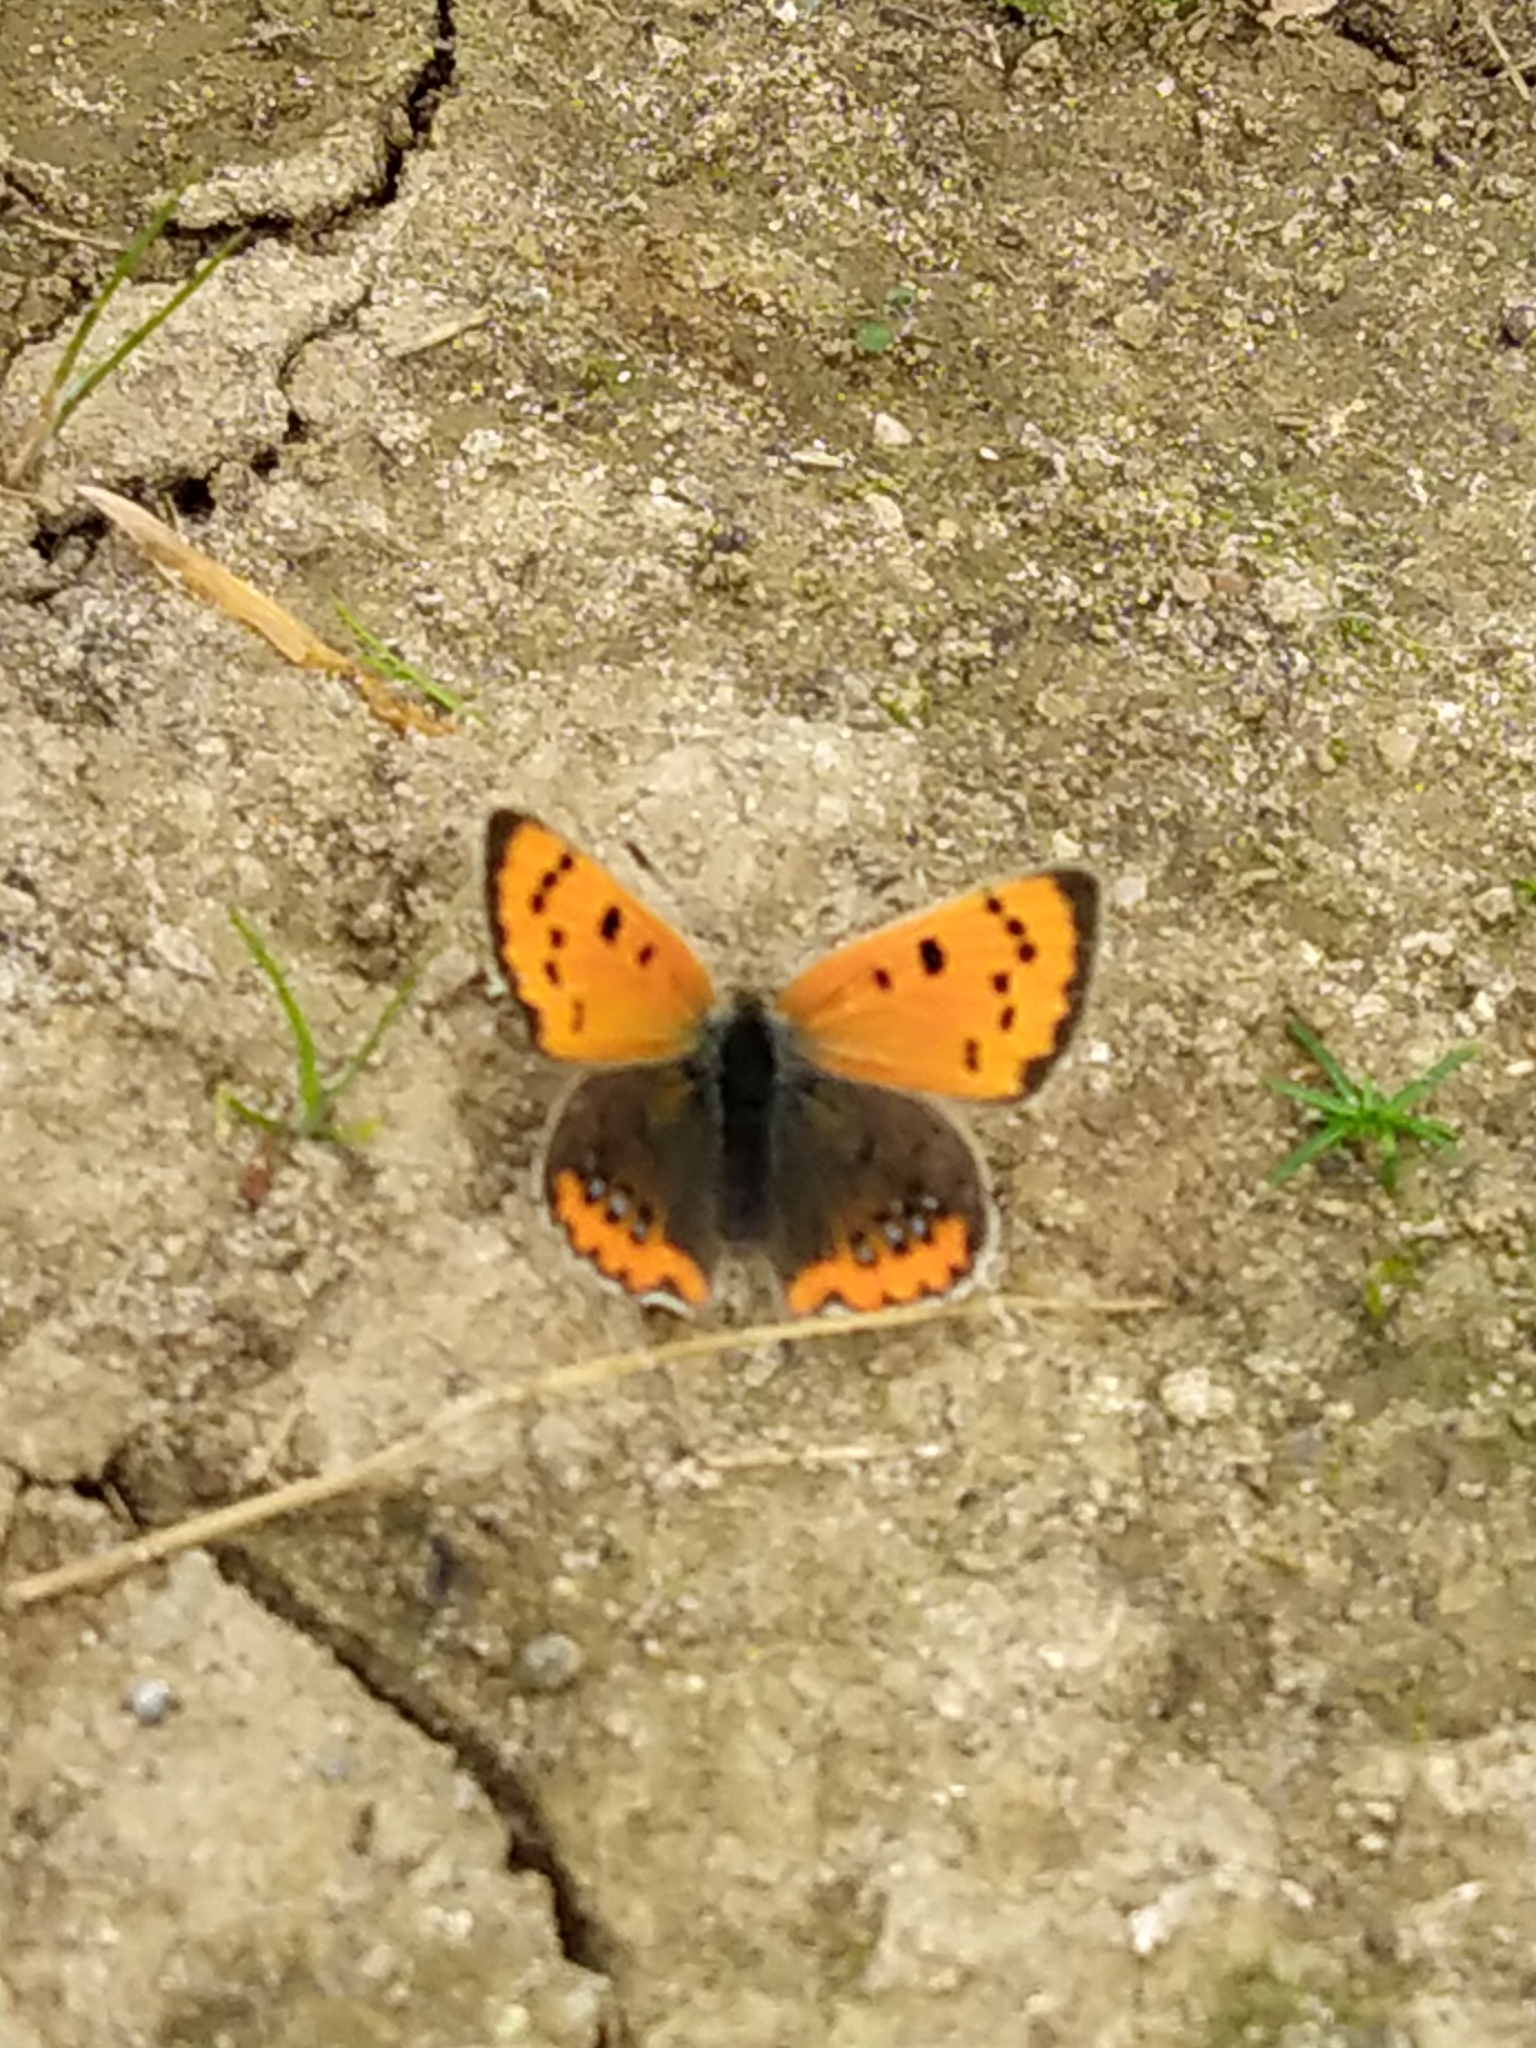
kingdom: Animalia
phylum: Arthropoda
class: Insecta
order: Lepidoptera
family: Lycaenidae
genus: Lycaena
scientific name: Lycaena phlaeas
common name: Small copper
